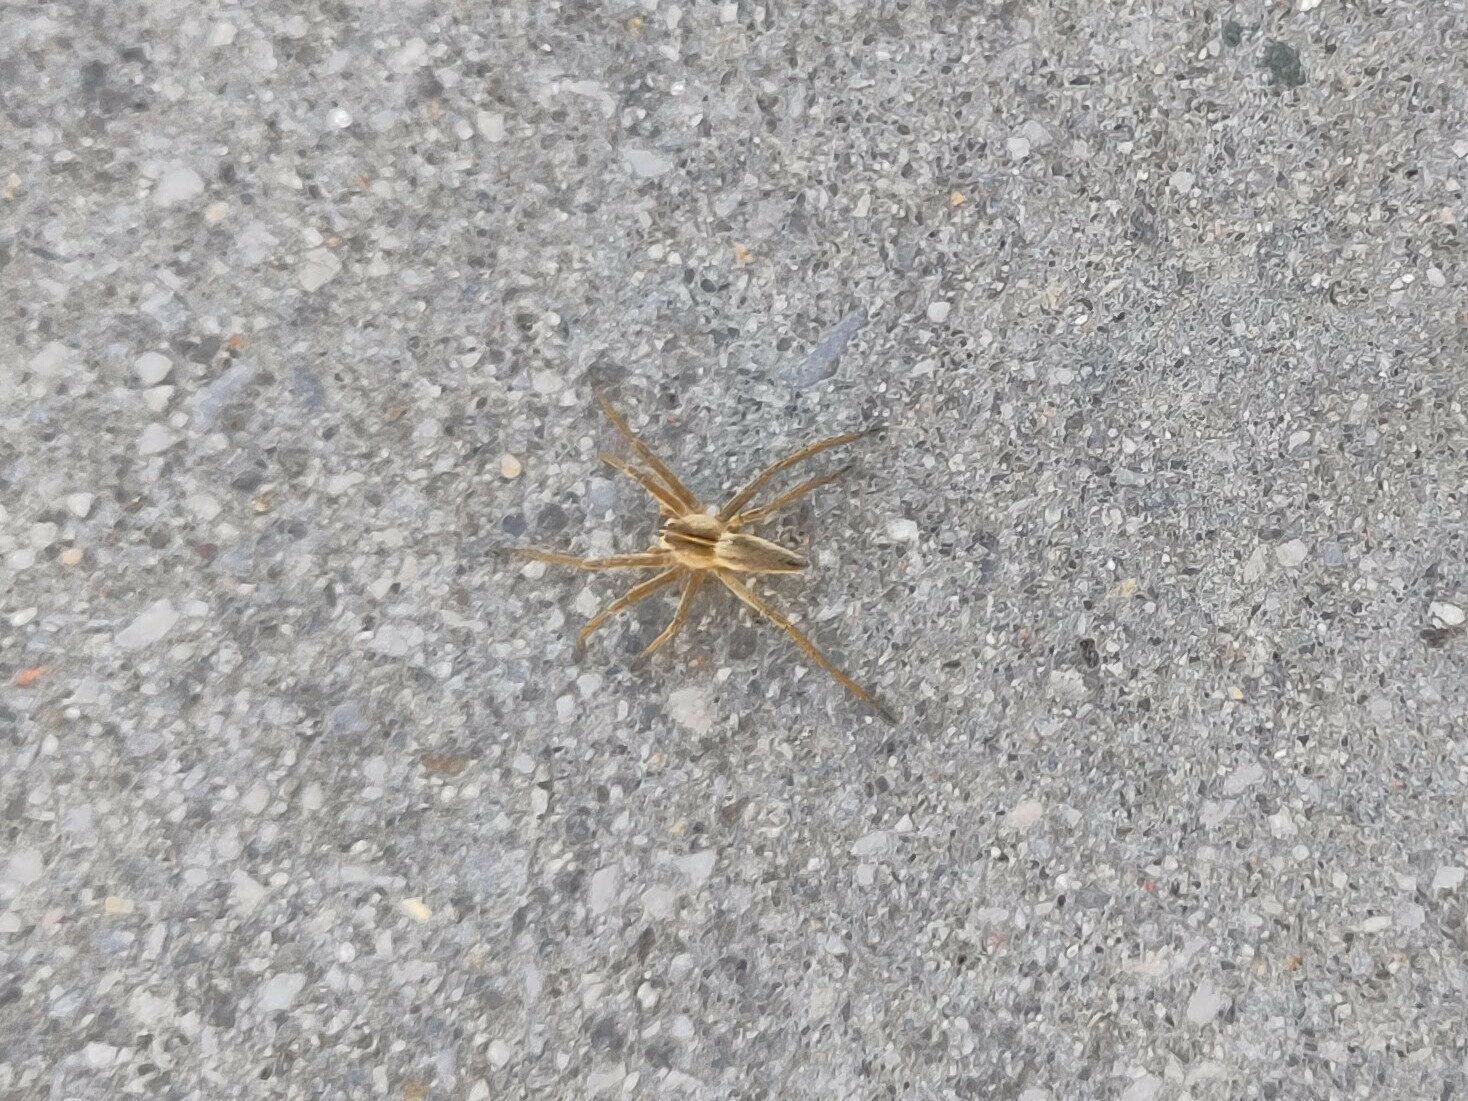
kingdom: Animalia
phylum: Arthropoda
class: Arachnida
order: Araneae
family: Pisauridae
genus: Pisaura
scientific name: Pisaura mirabilis
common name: Tent spider
